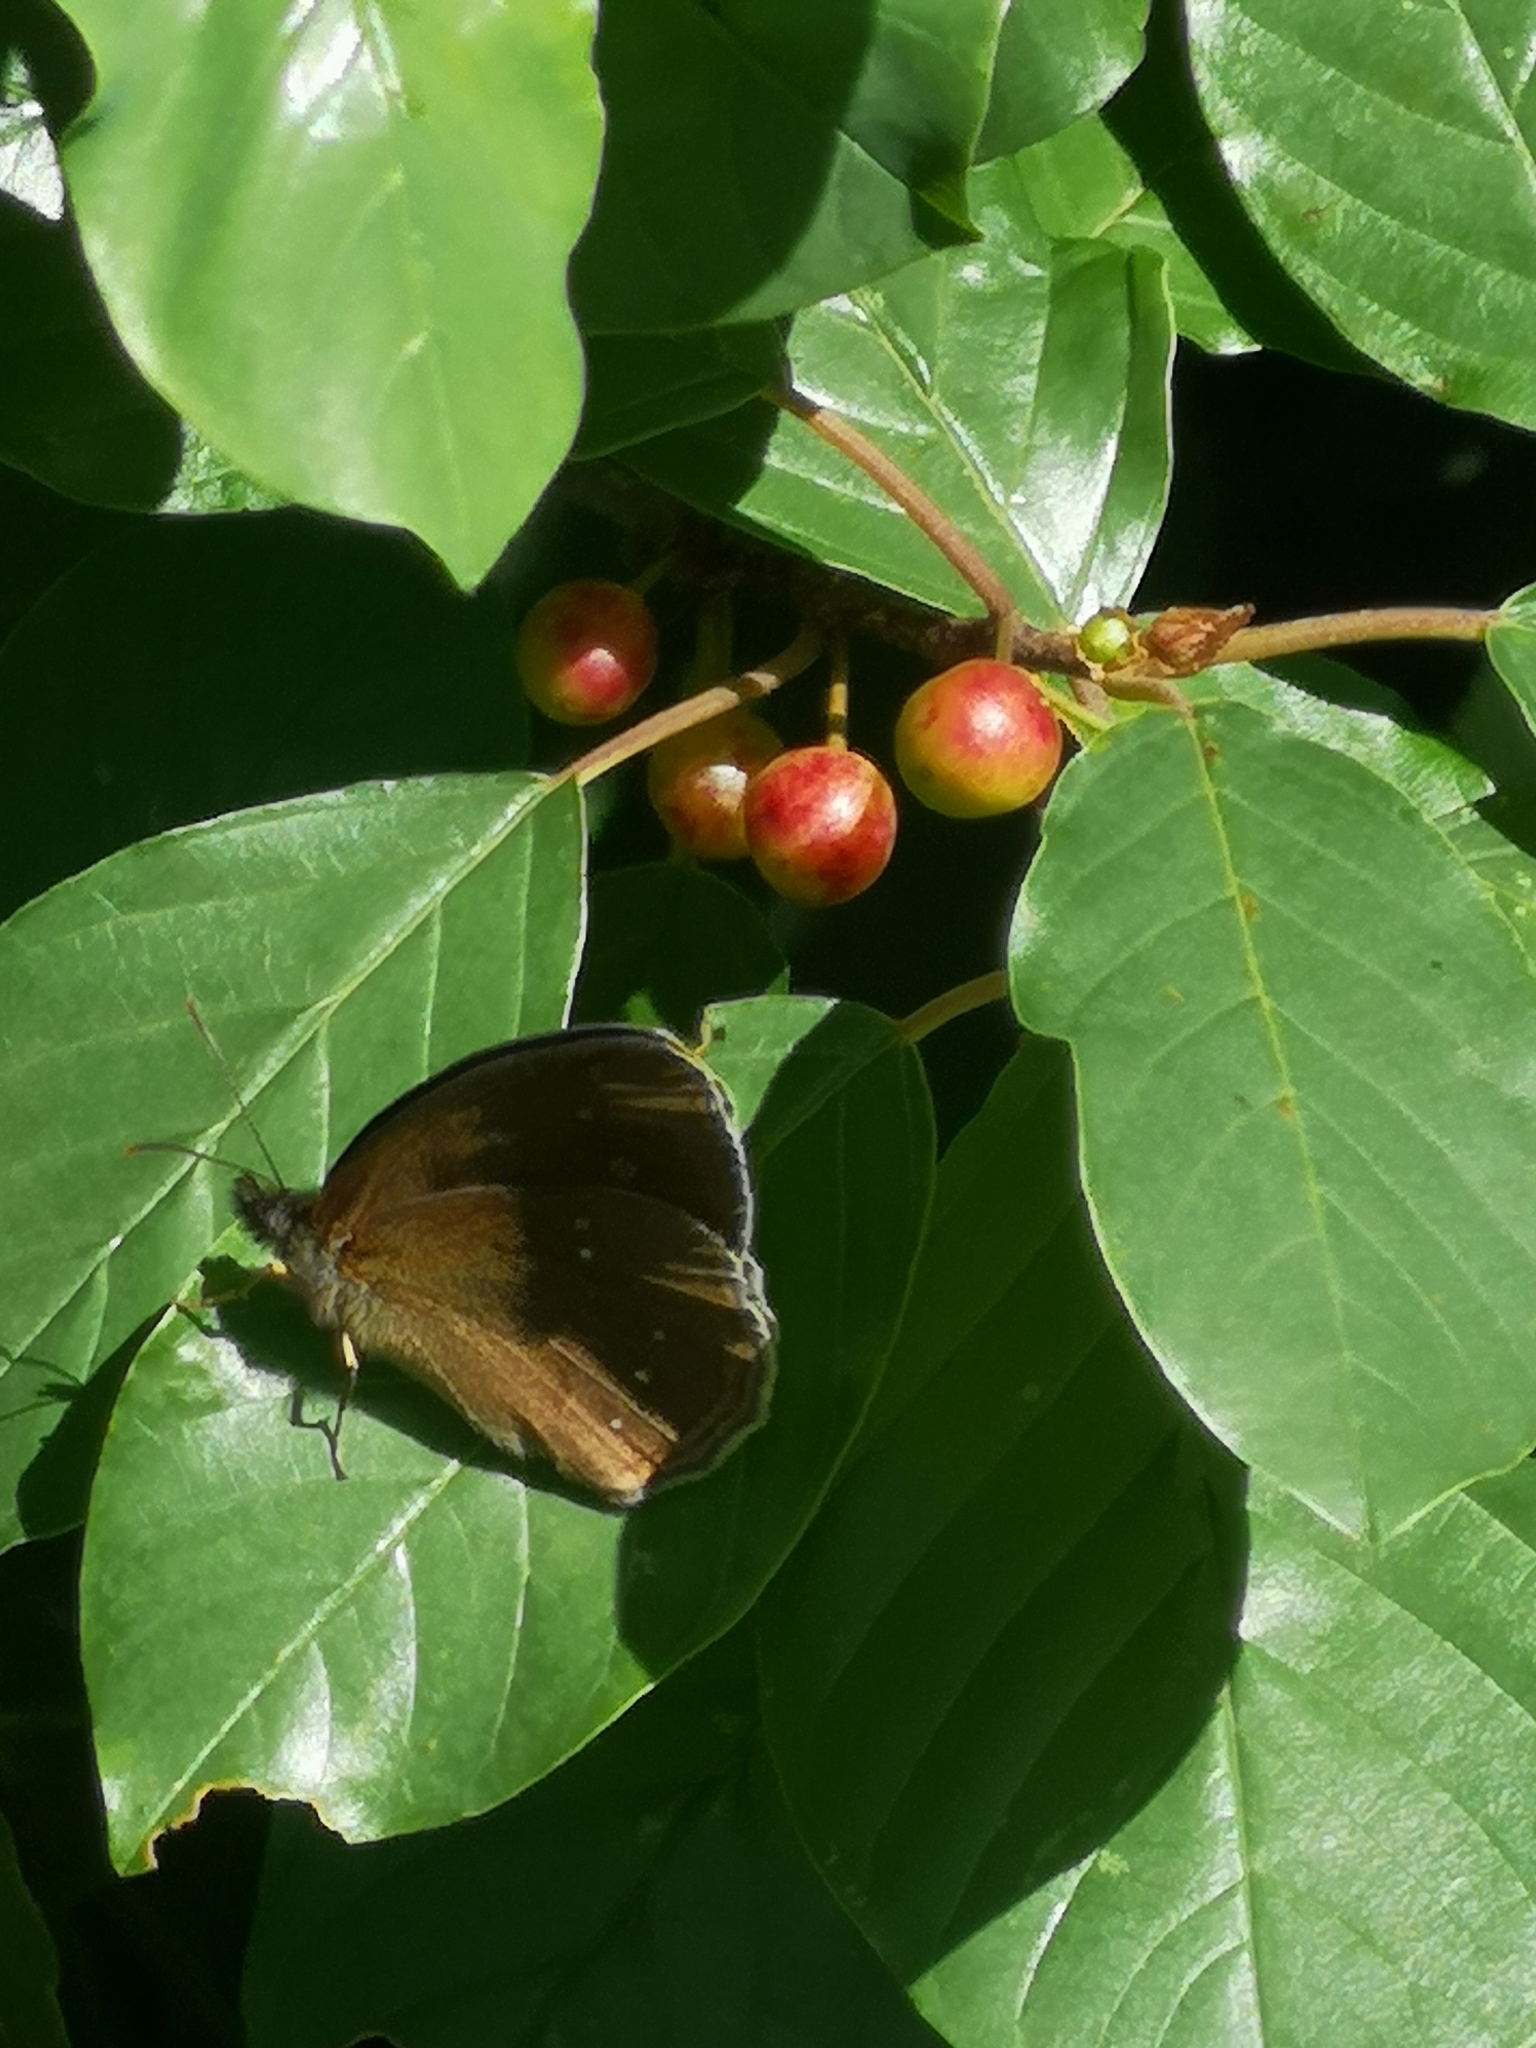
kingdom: Animalia
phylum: Arthropoda
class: Insecta
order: Lepidoptera
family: Nymphalidae
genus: Aphantopus
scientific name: Aphantopus hyperantus
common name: Ringlet
